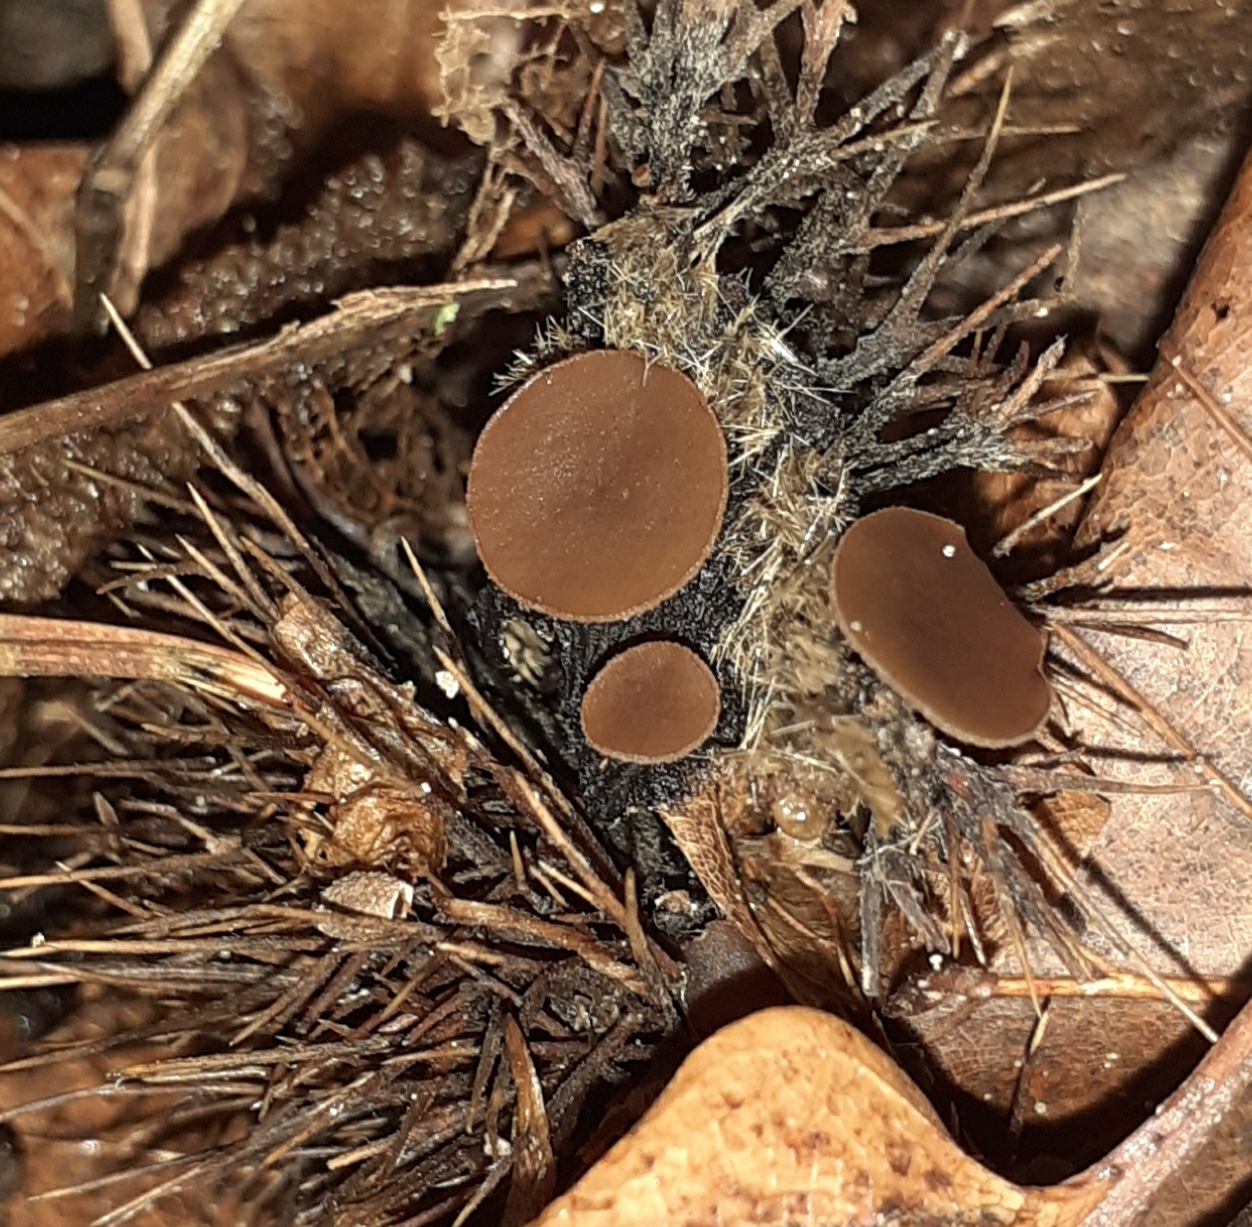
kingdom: Fungi
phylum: Ascomycota
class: Leotiomycetes
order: Helotiales
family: Rutstroemiaceae
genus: Lanzia
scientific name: Lanzia echinophila
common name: Hairy nuts disco
